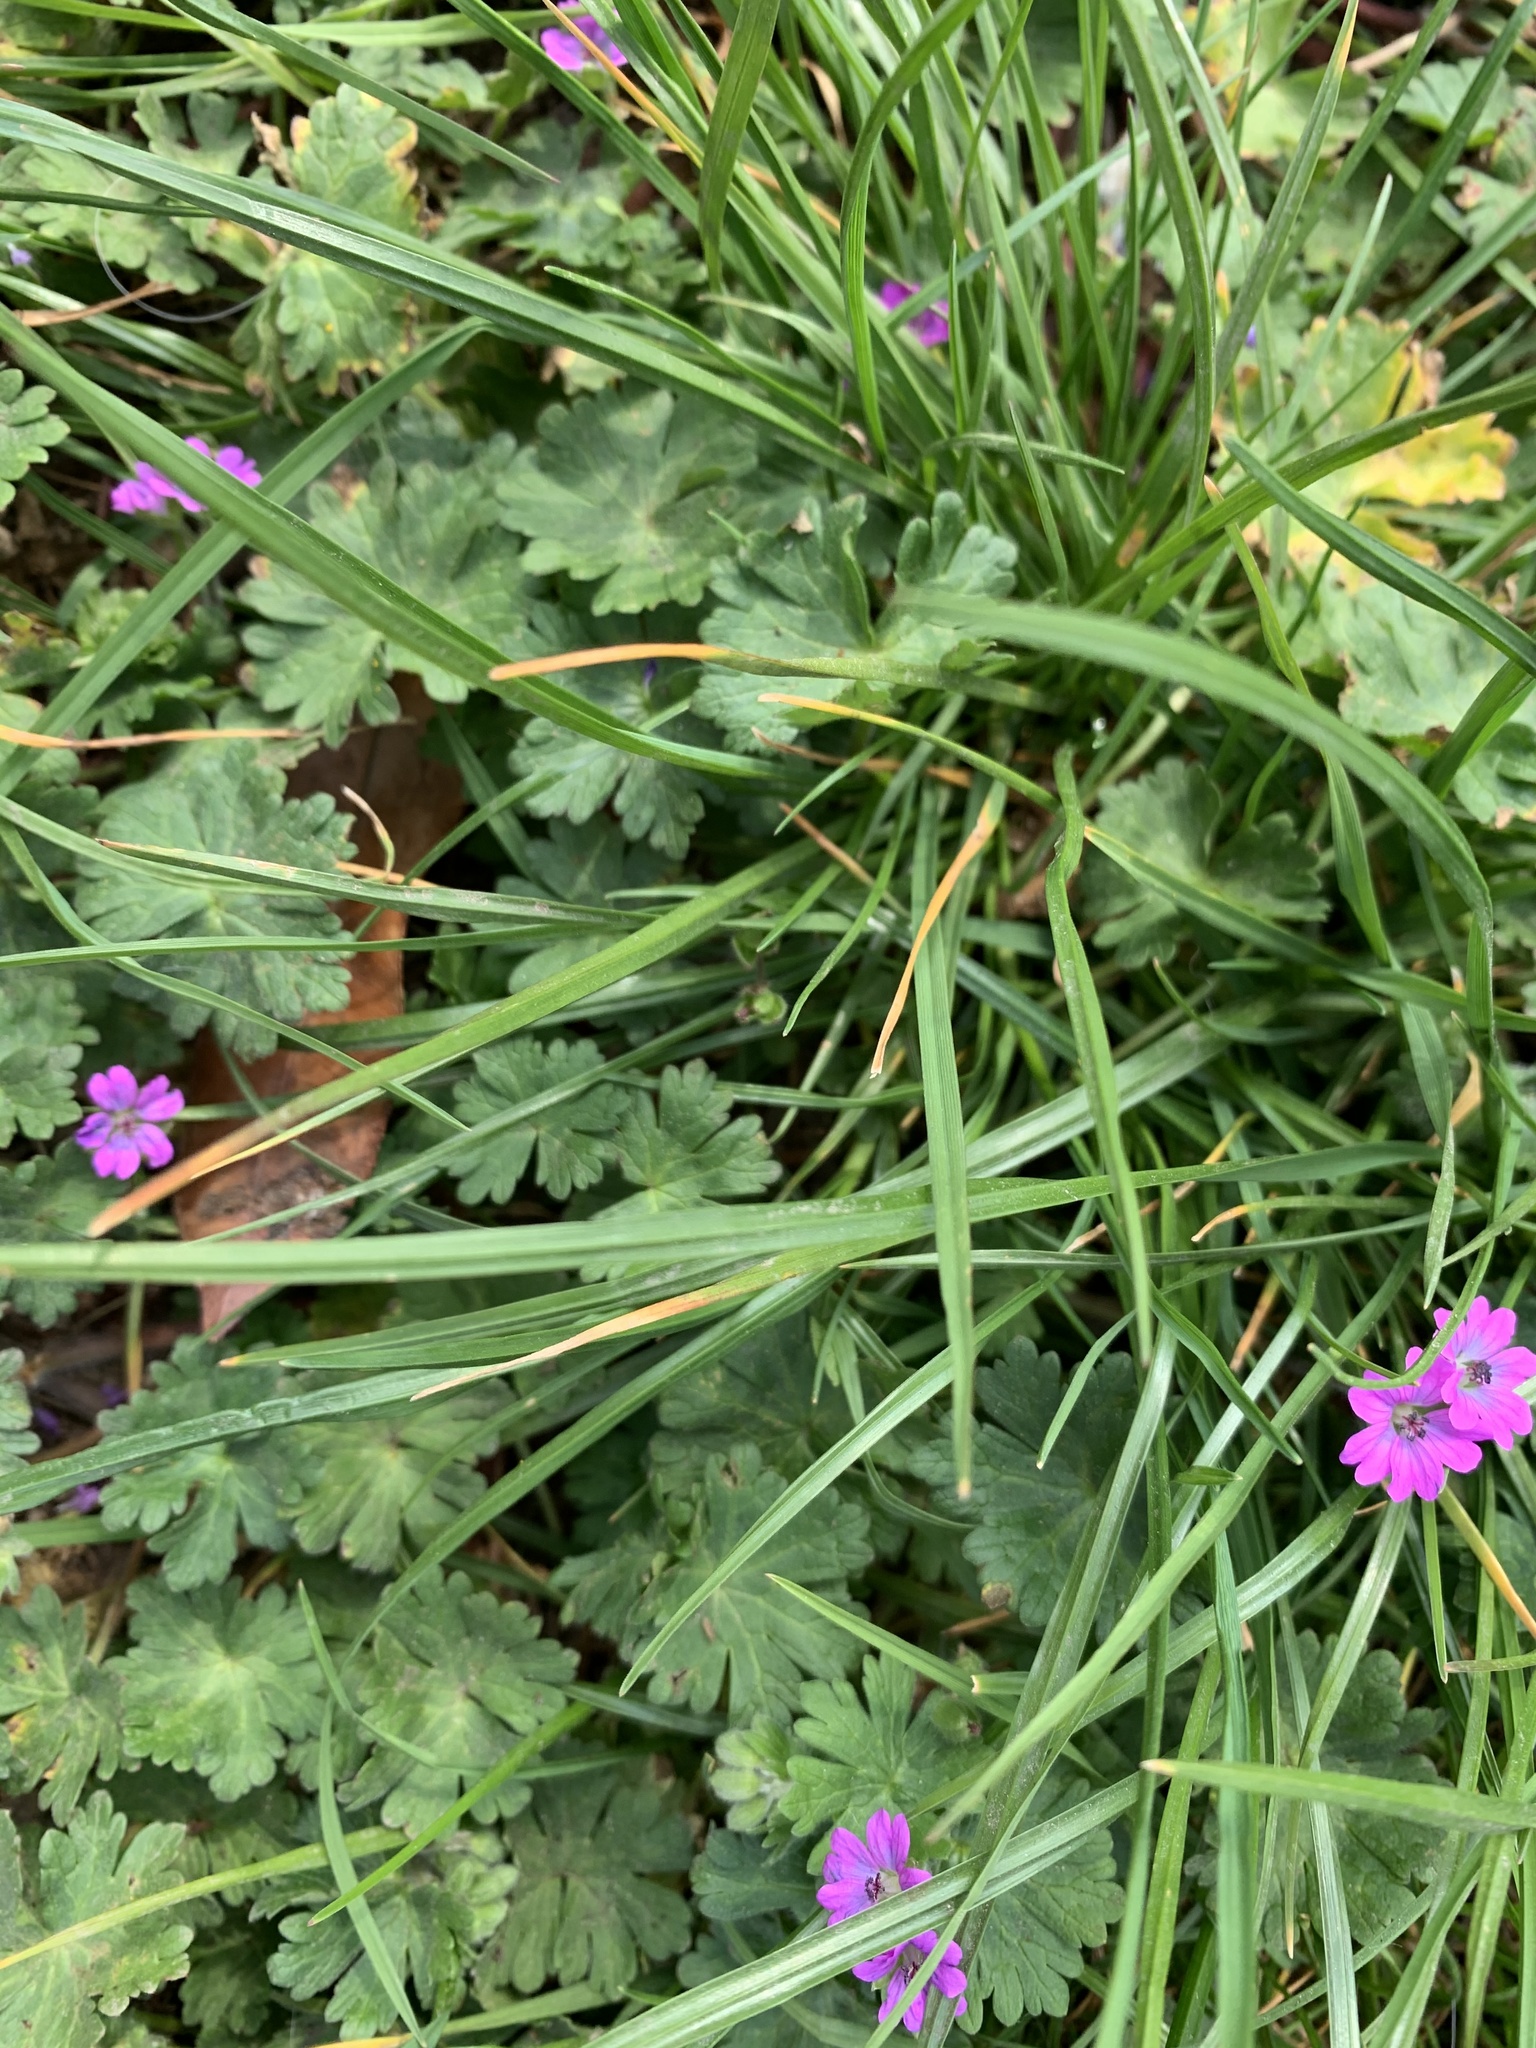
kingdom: Plantae
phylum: Tracheophyta
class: Magnoliopsida
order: Geraniales
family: Geraniaceae
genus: Geranium
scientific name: Geranium molle
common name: Dove's-foot crane's-bill
